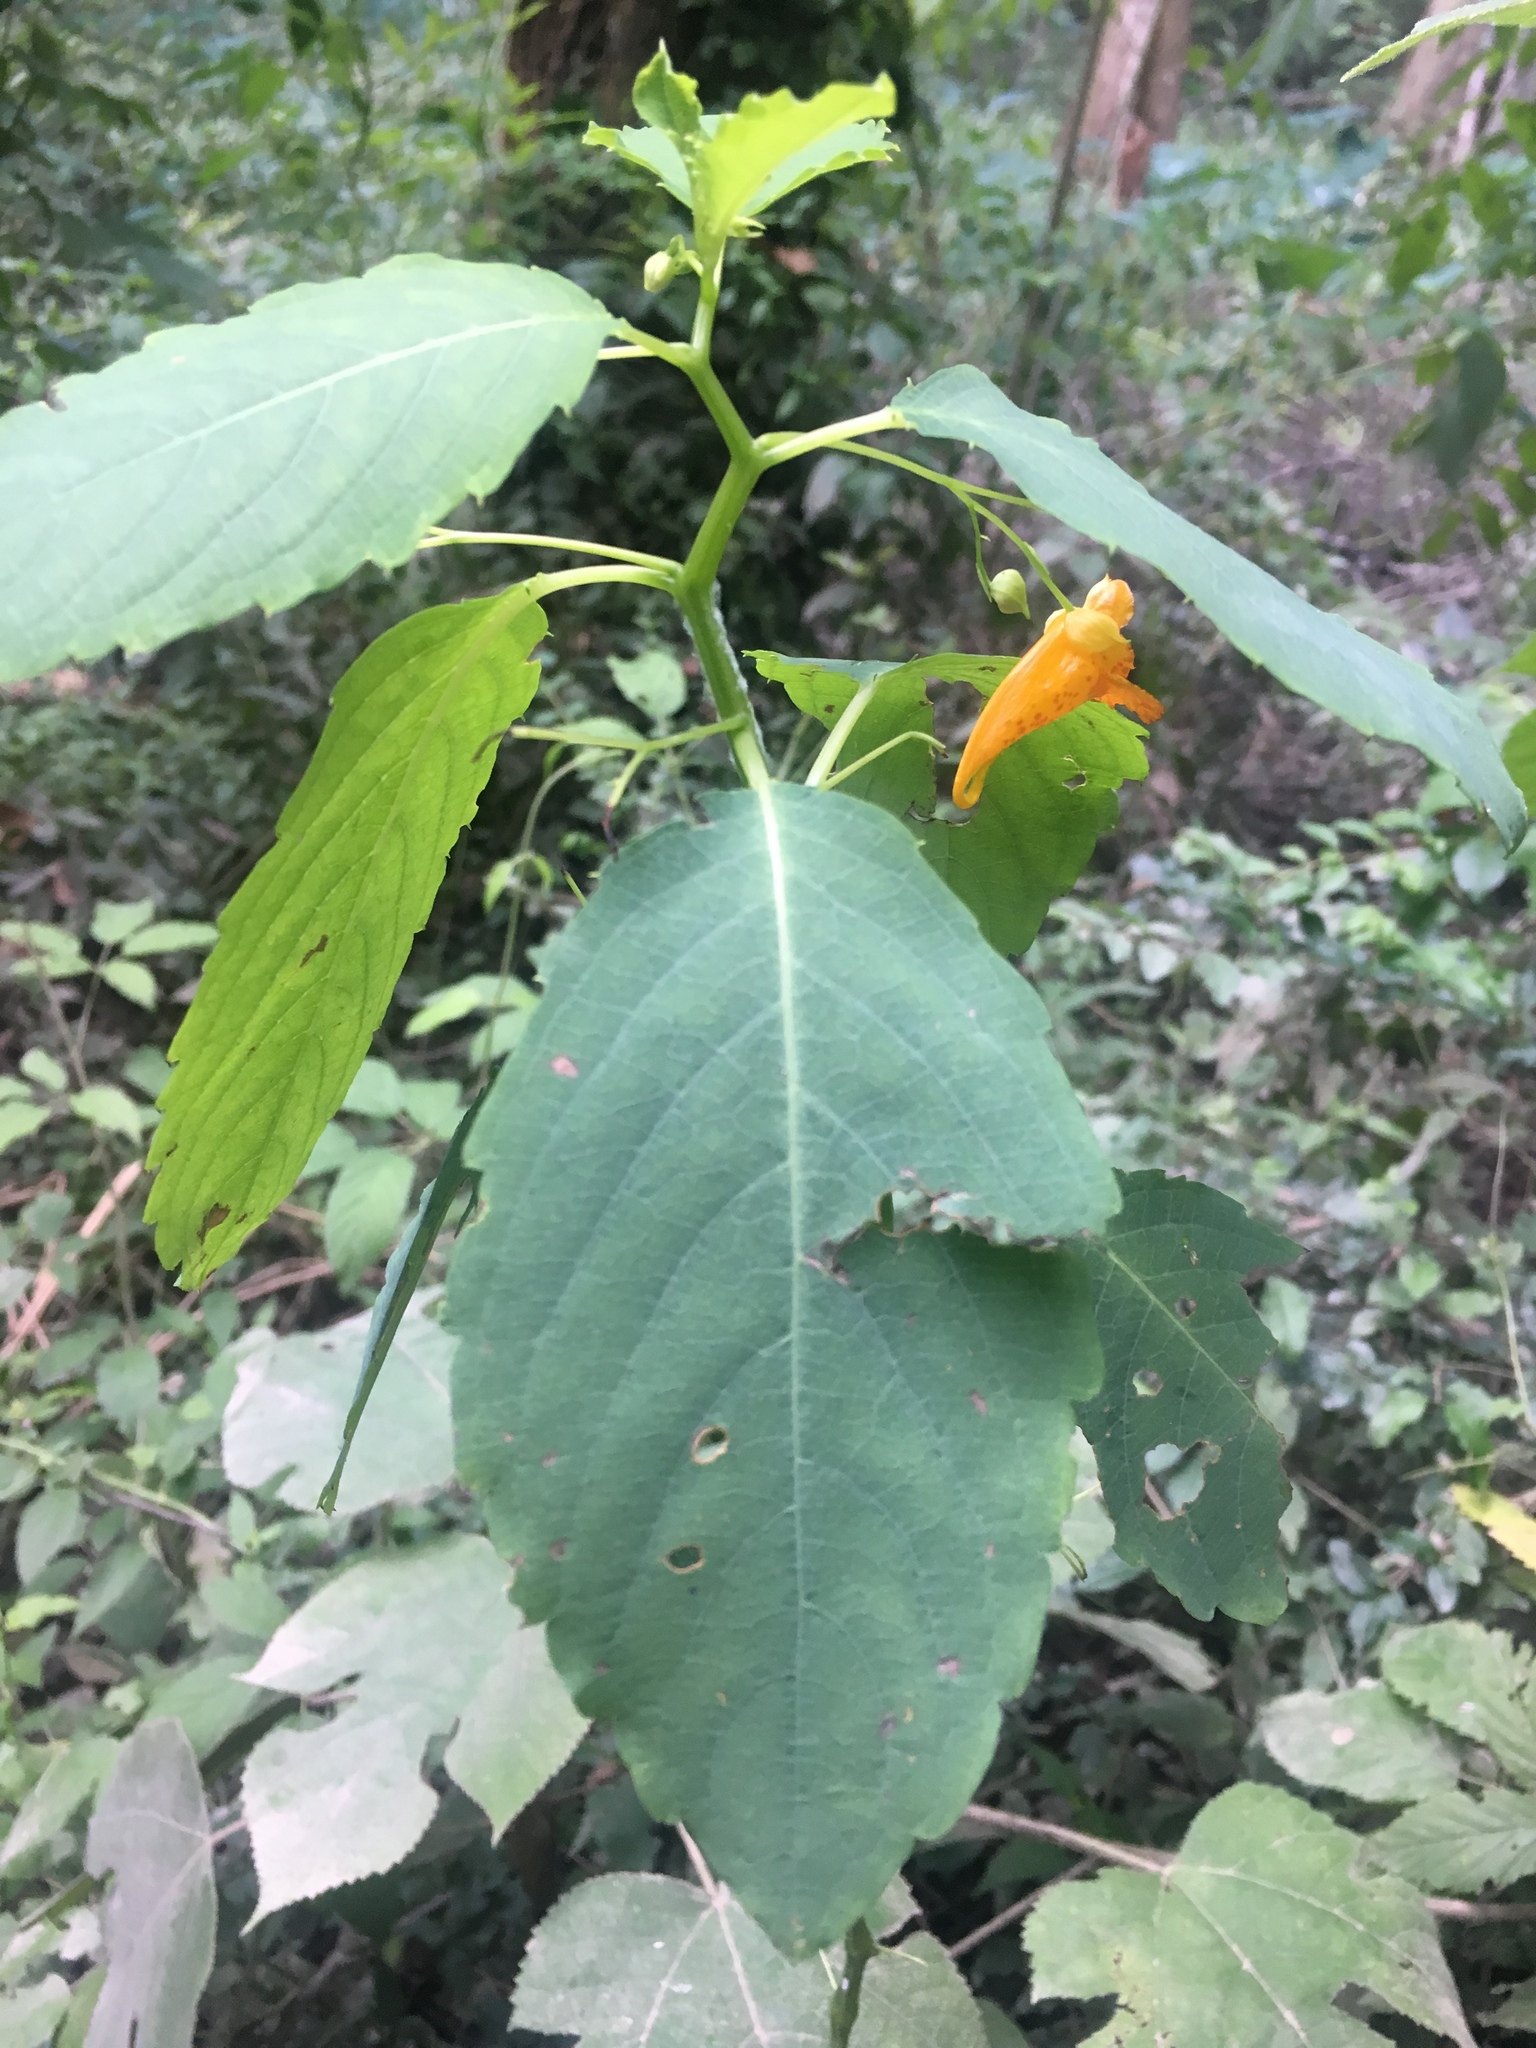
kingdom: Plantae
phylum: Tracheophyta
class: Magnoliopsida
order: Ericales
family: Balsaminaceae
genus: Impatiens
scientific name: Impatiens capensis
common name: Orange balsam
